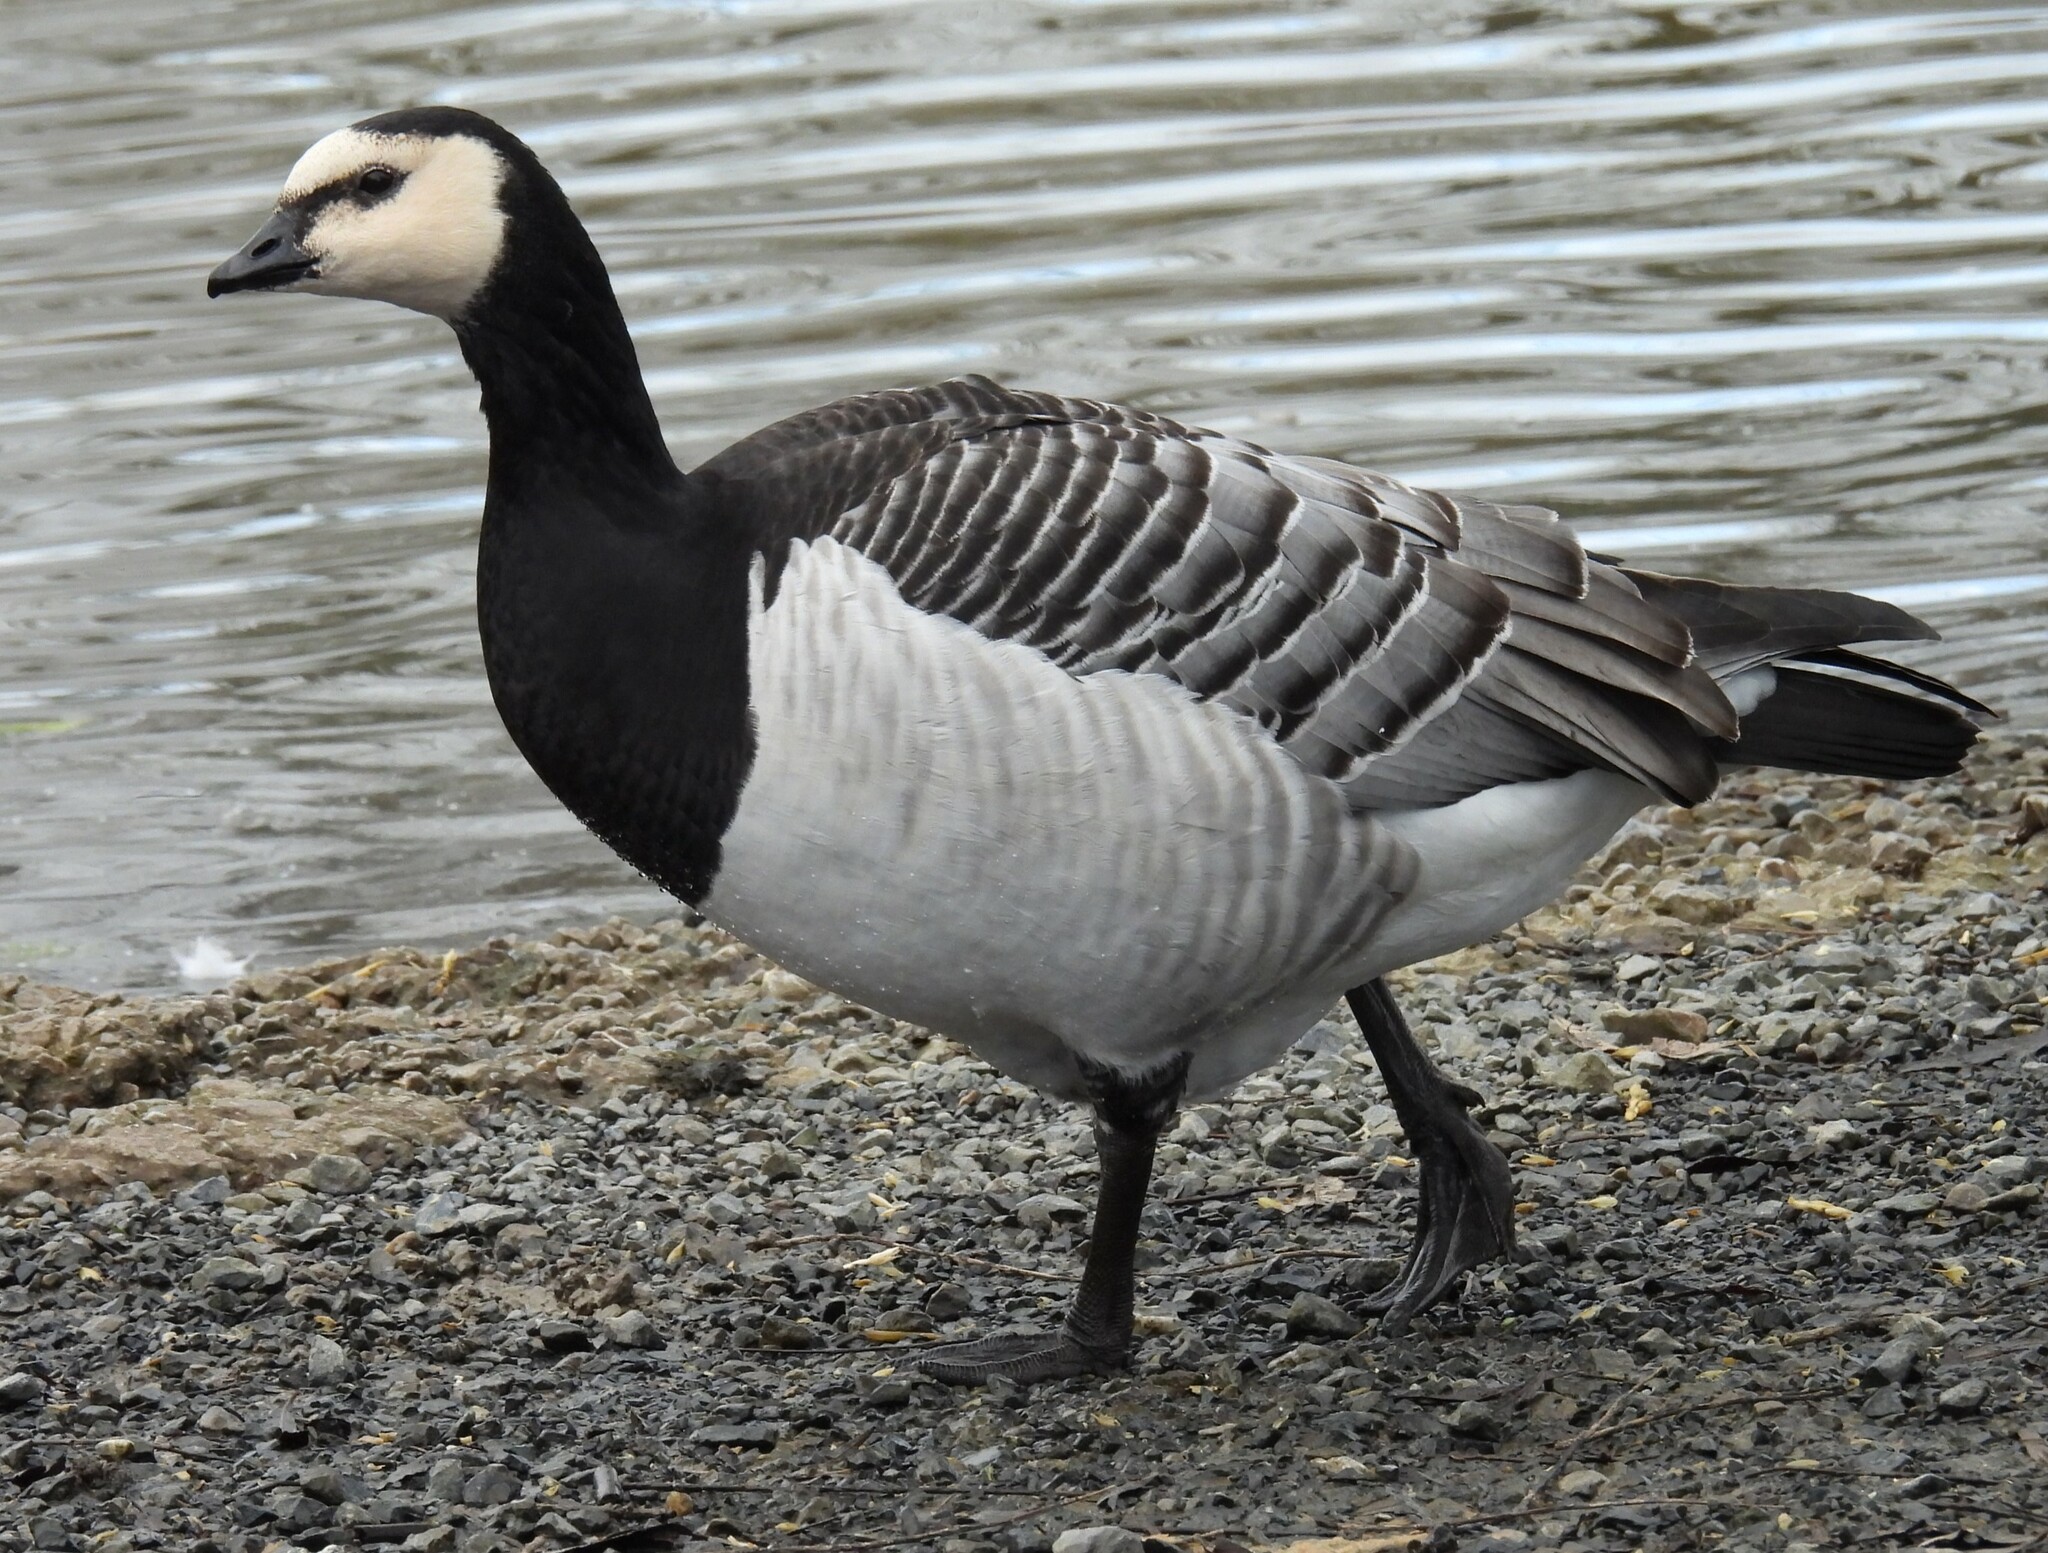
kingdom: Animalia
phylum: Chordata
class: Aves
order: Anseriformes
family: Anatidae
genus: Branta
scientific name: Branta leucopsis
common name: Barnacle goose
